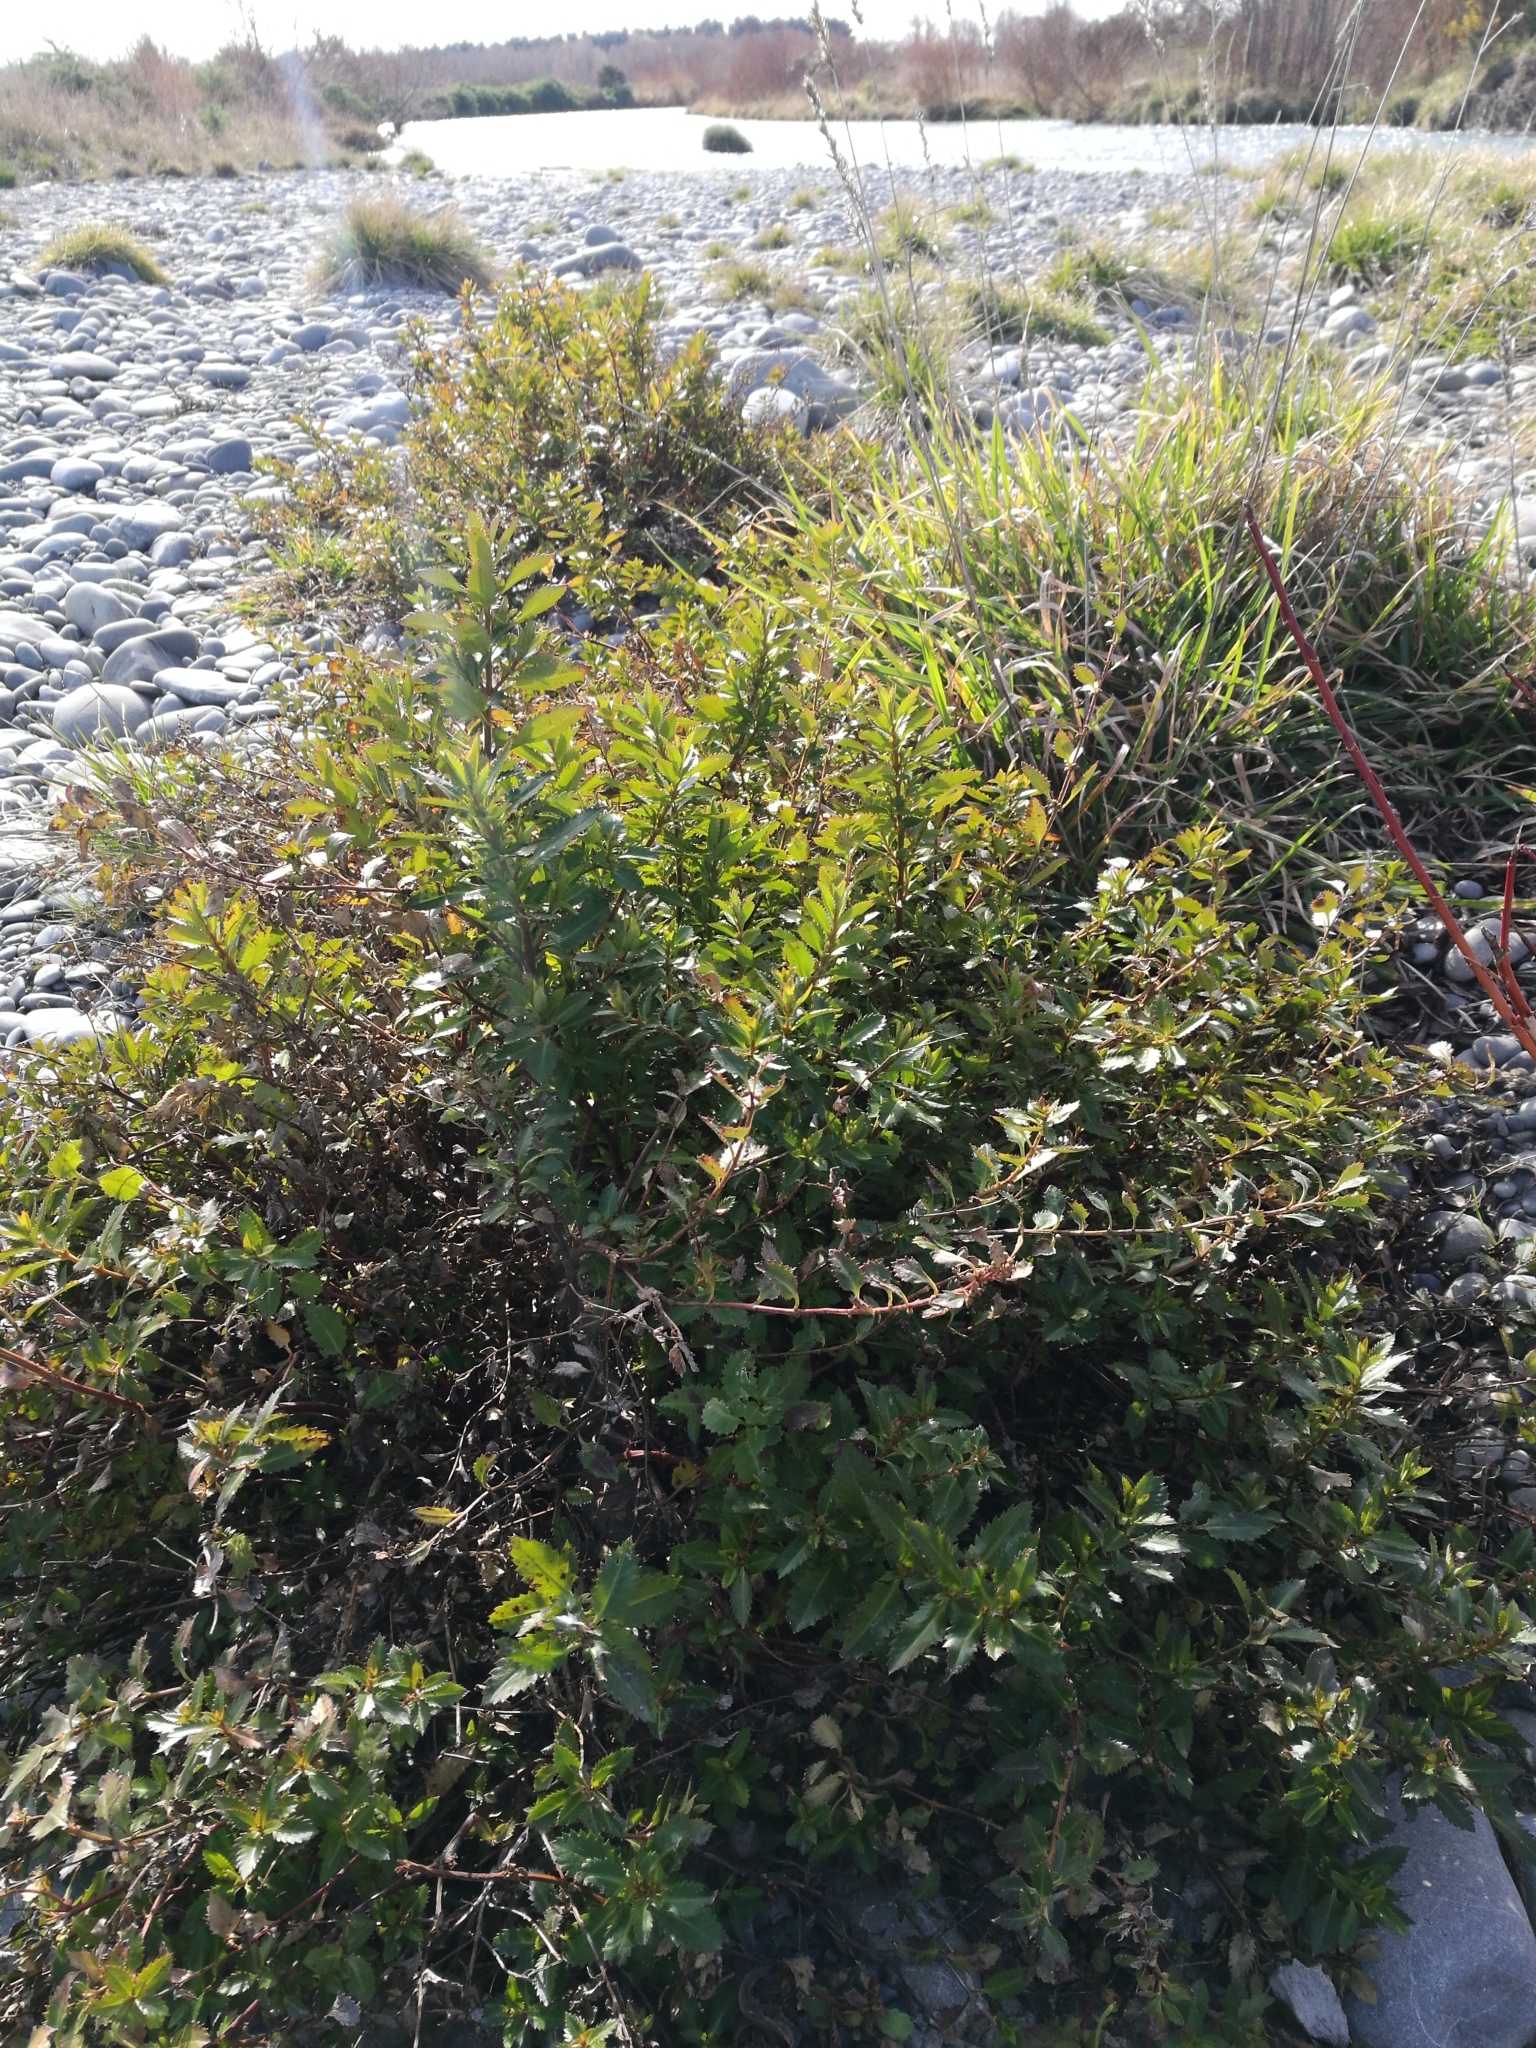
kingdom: Plantae
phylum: Tracheophyta
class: Magnoliopsida
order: Saxifragales
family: Haloragaceae
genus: Haloragis
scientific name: Haloragis erecta
